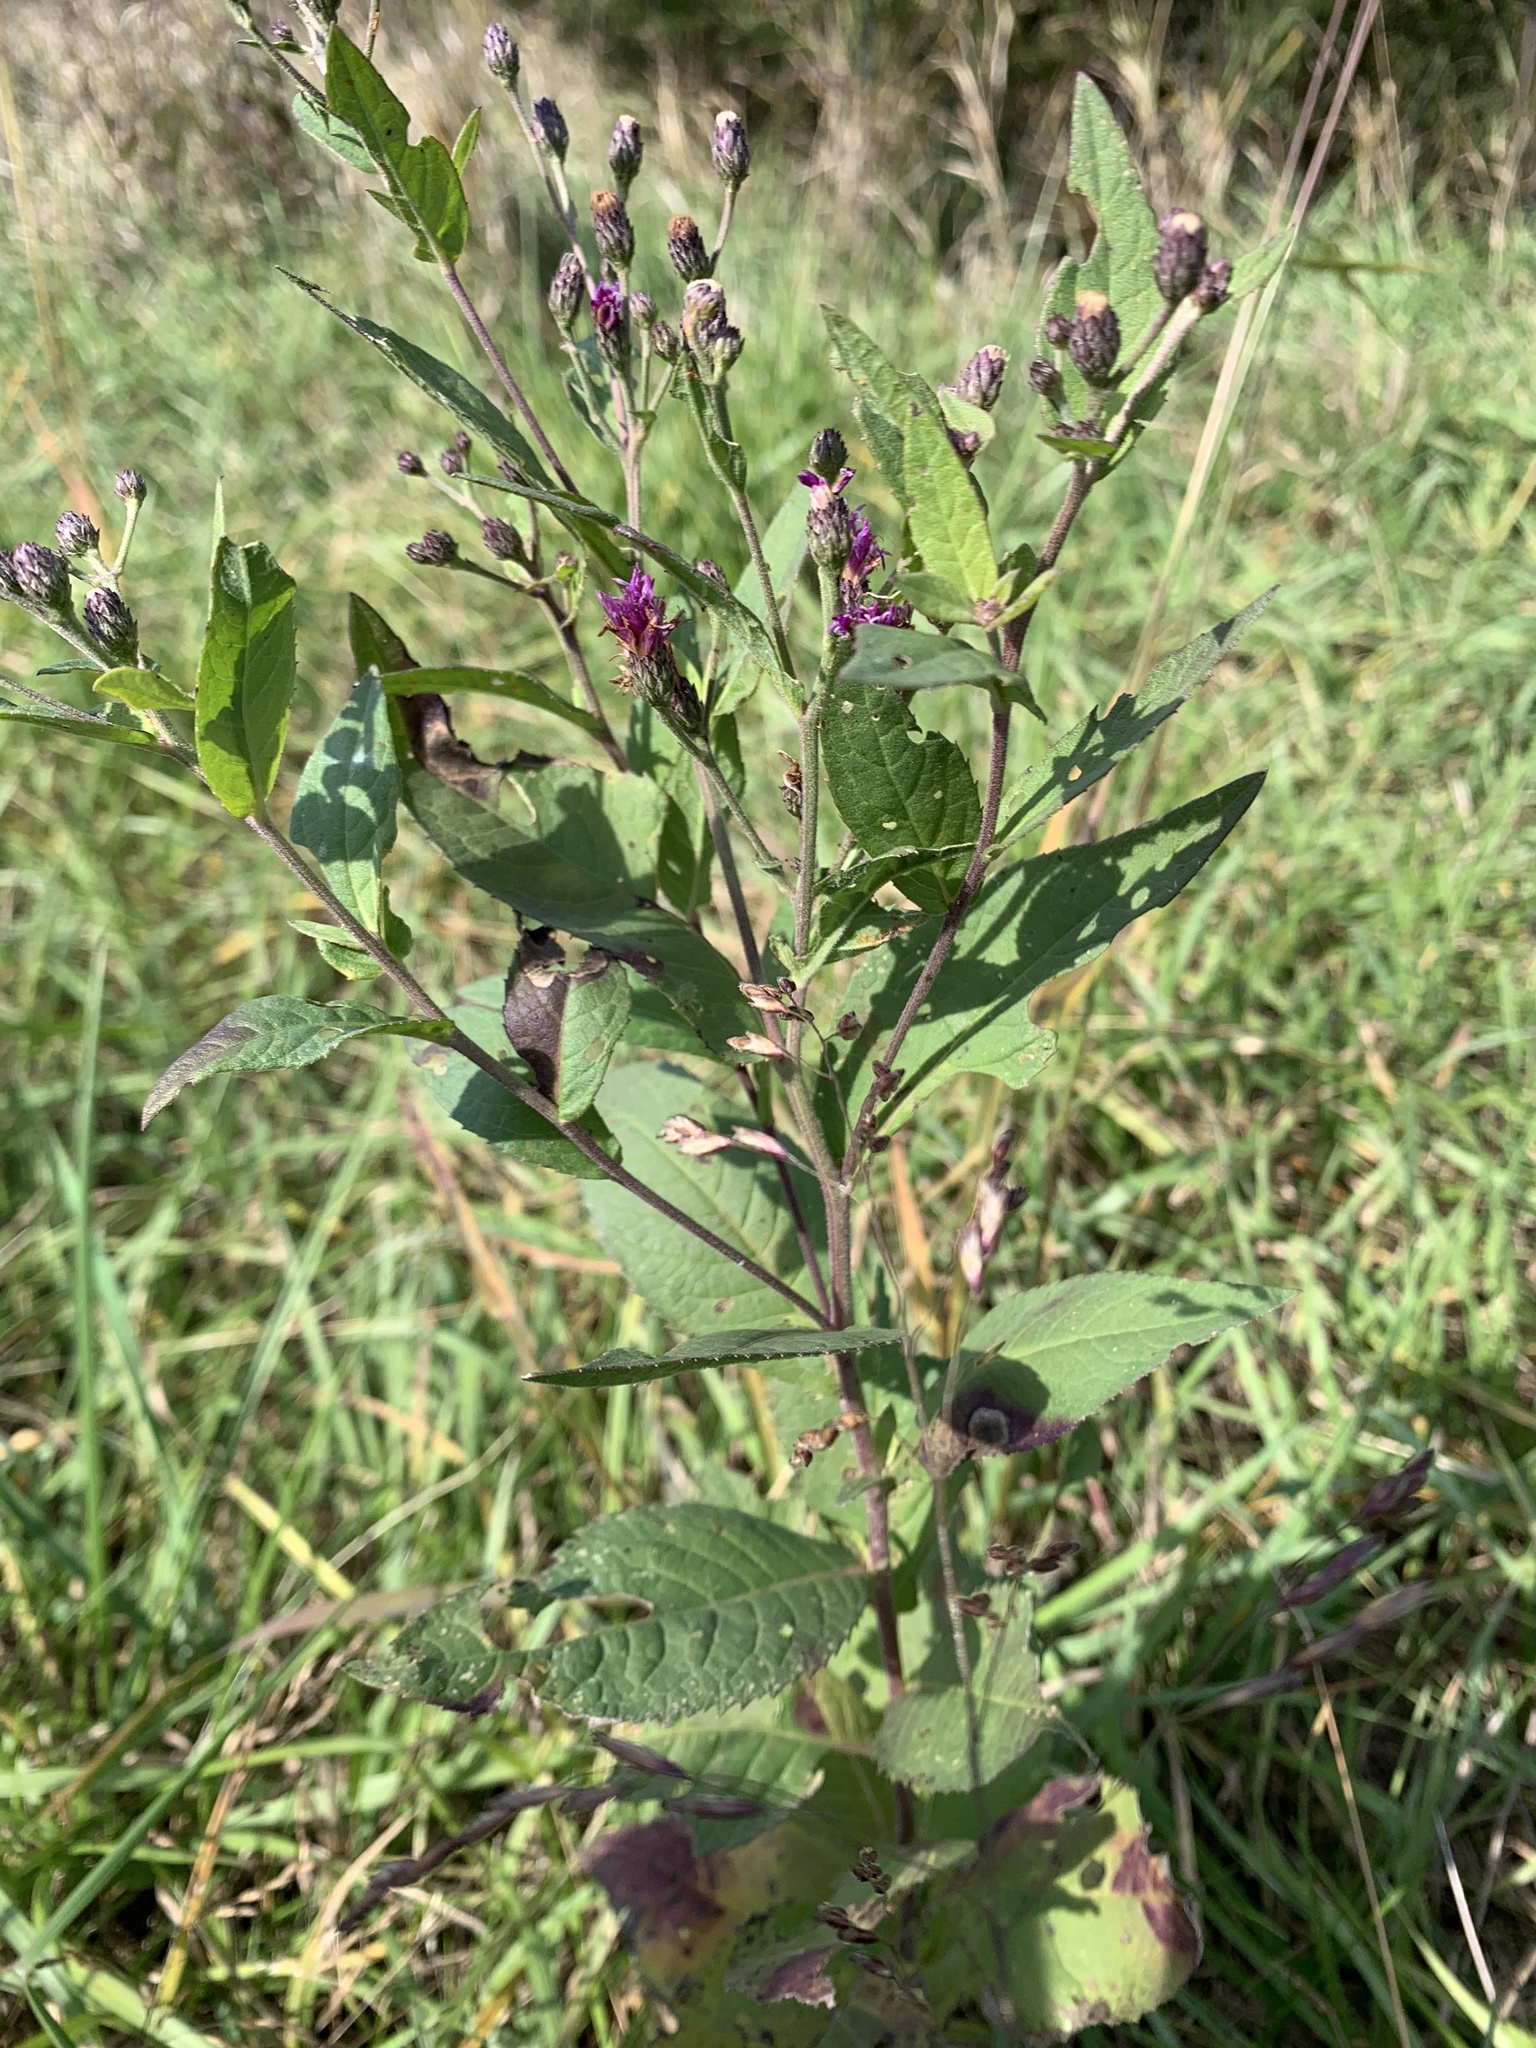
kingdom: Plantae
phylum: Tracheophyta
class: Magnoliopsida
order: Asterales
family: Asteraceae
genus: Vernonia
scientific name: Vernonia gigantea
